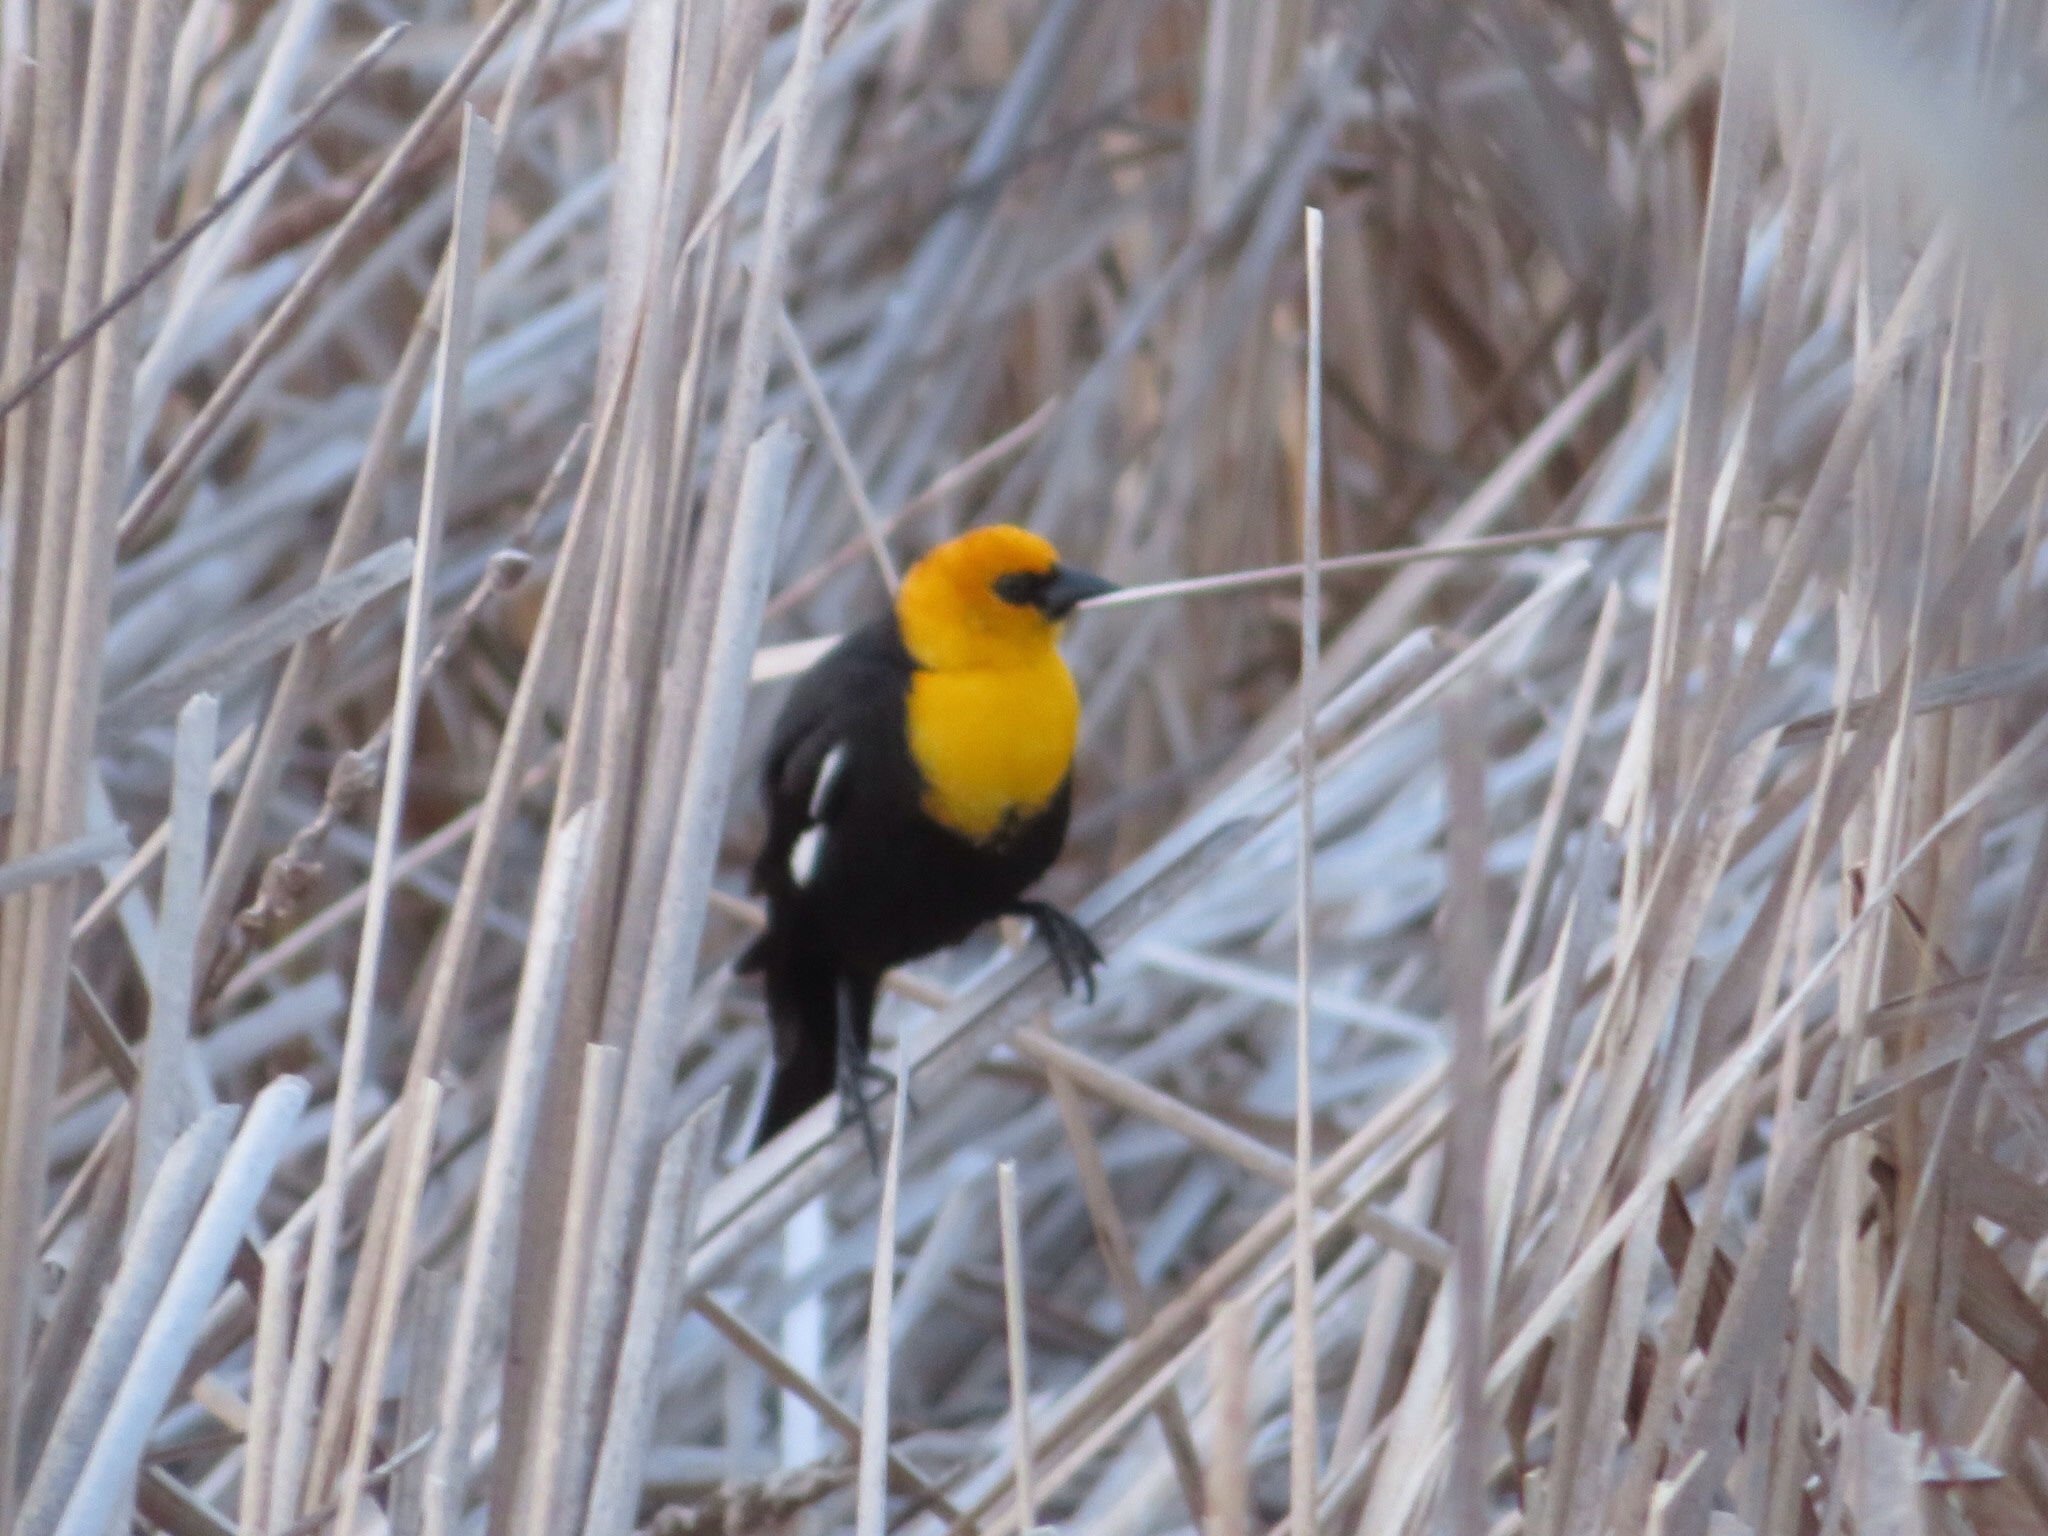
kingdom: Animalia
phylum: Chordata
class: Aves
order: Passeriformes
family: Icteridae
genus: Xanthocephalus
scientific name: Xanthocephalus xanthocephalus
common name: Yellow-headed blackbird
